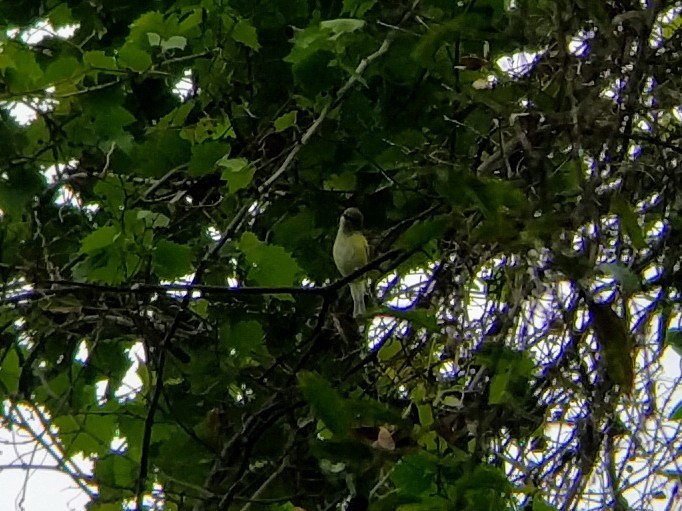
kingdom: Animalia
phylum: Chordata
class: Aves
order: Passeriformes
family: Vireonidae
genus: Vireo
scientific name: Vireo griseus
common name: White-eyed vireo
